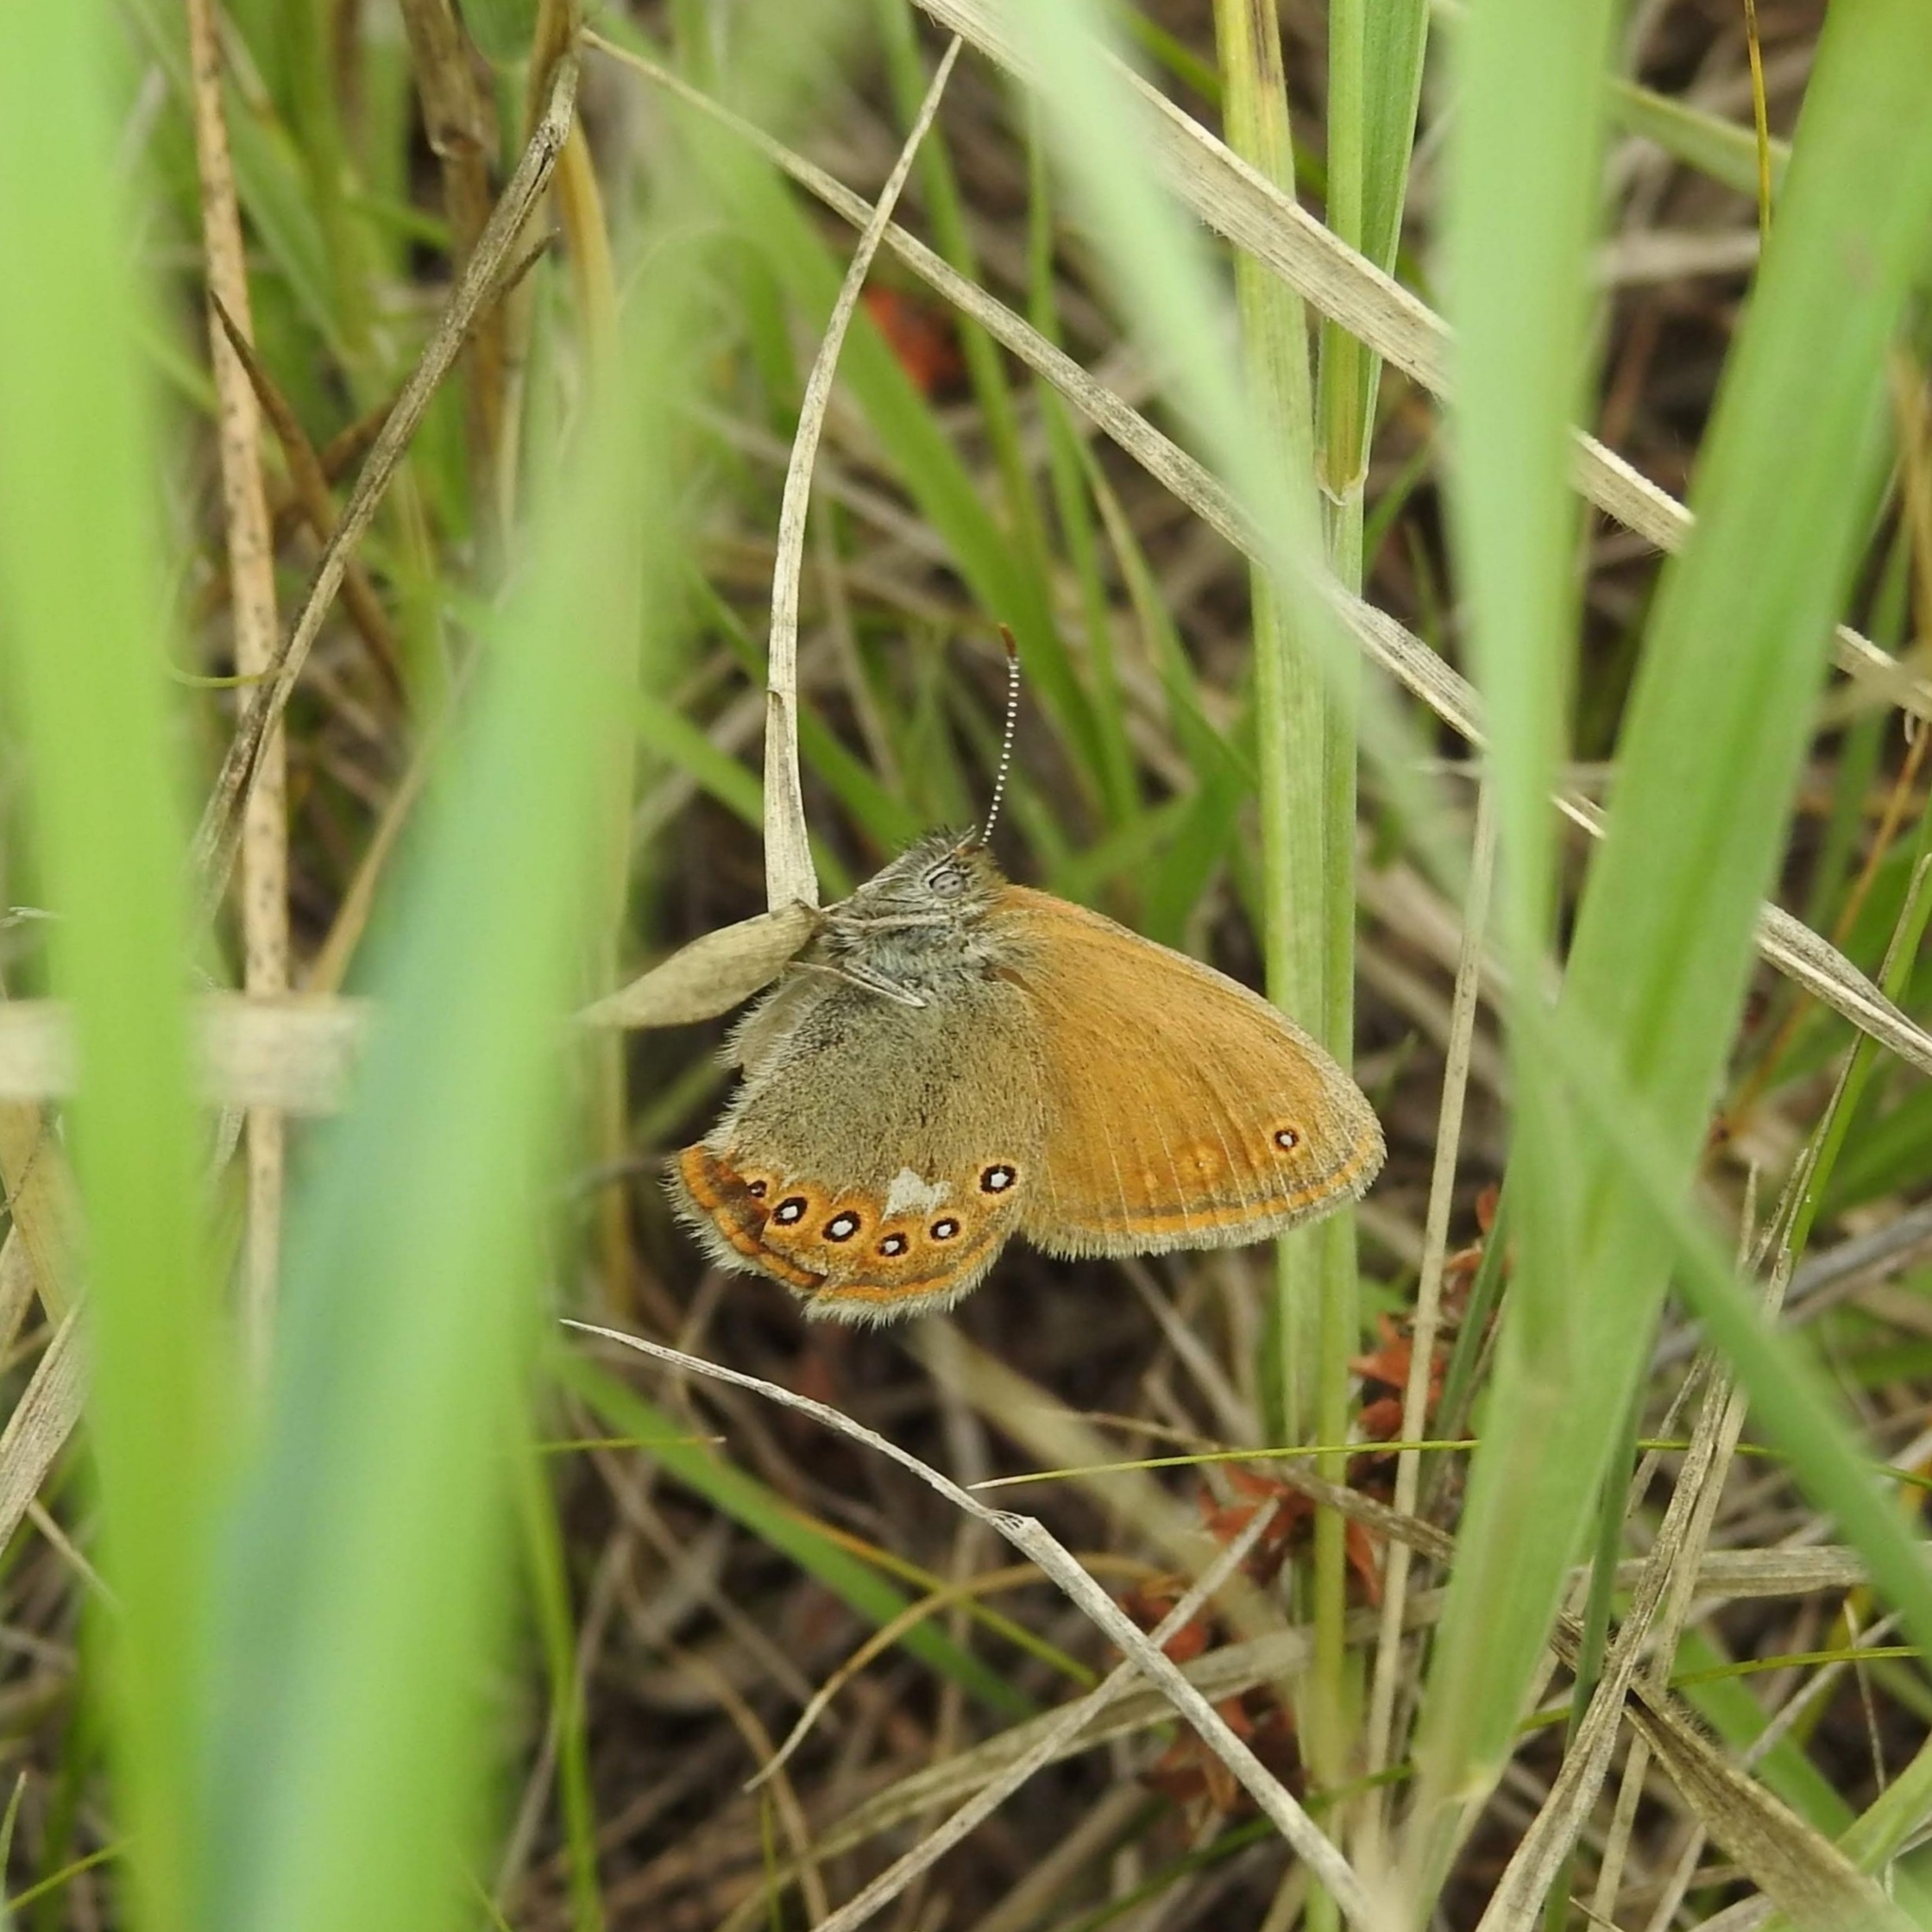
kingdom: Animalia
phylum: Arthropoda
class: Insecta
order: Lepidoptera
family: Nymphalidae
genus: Coenonympha
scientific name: Coenonympha iphis
